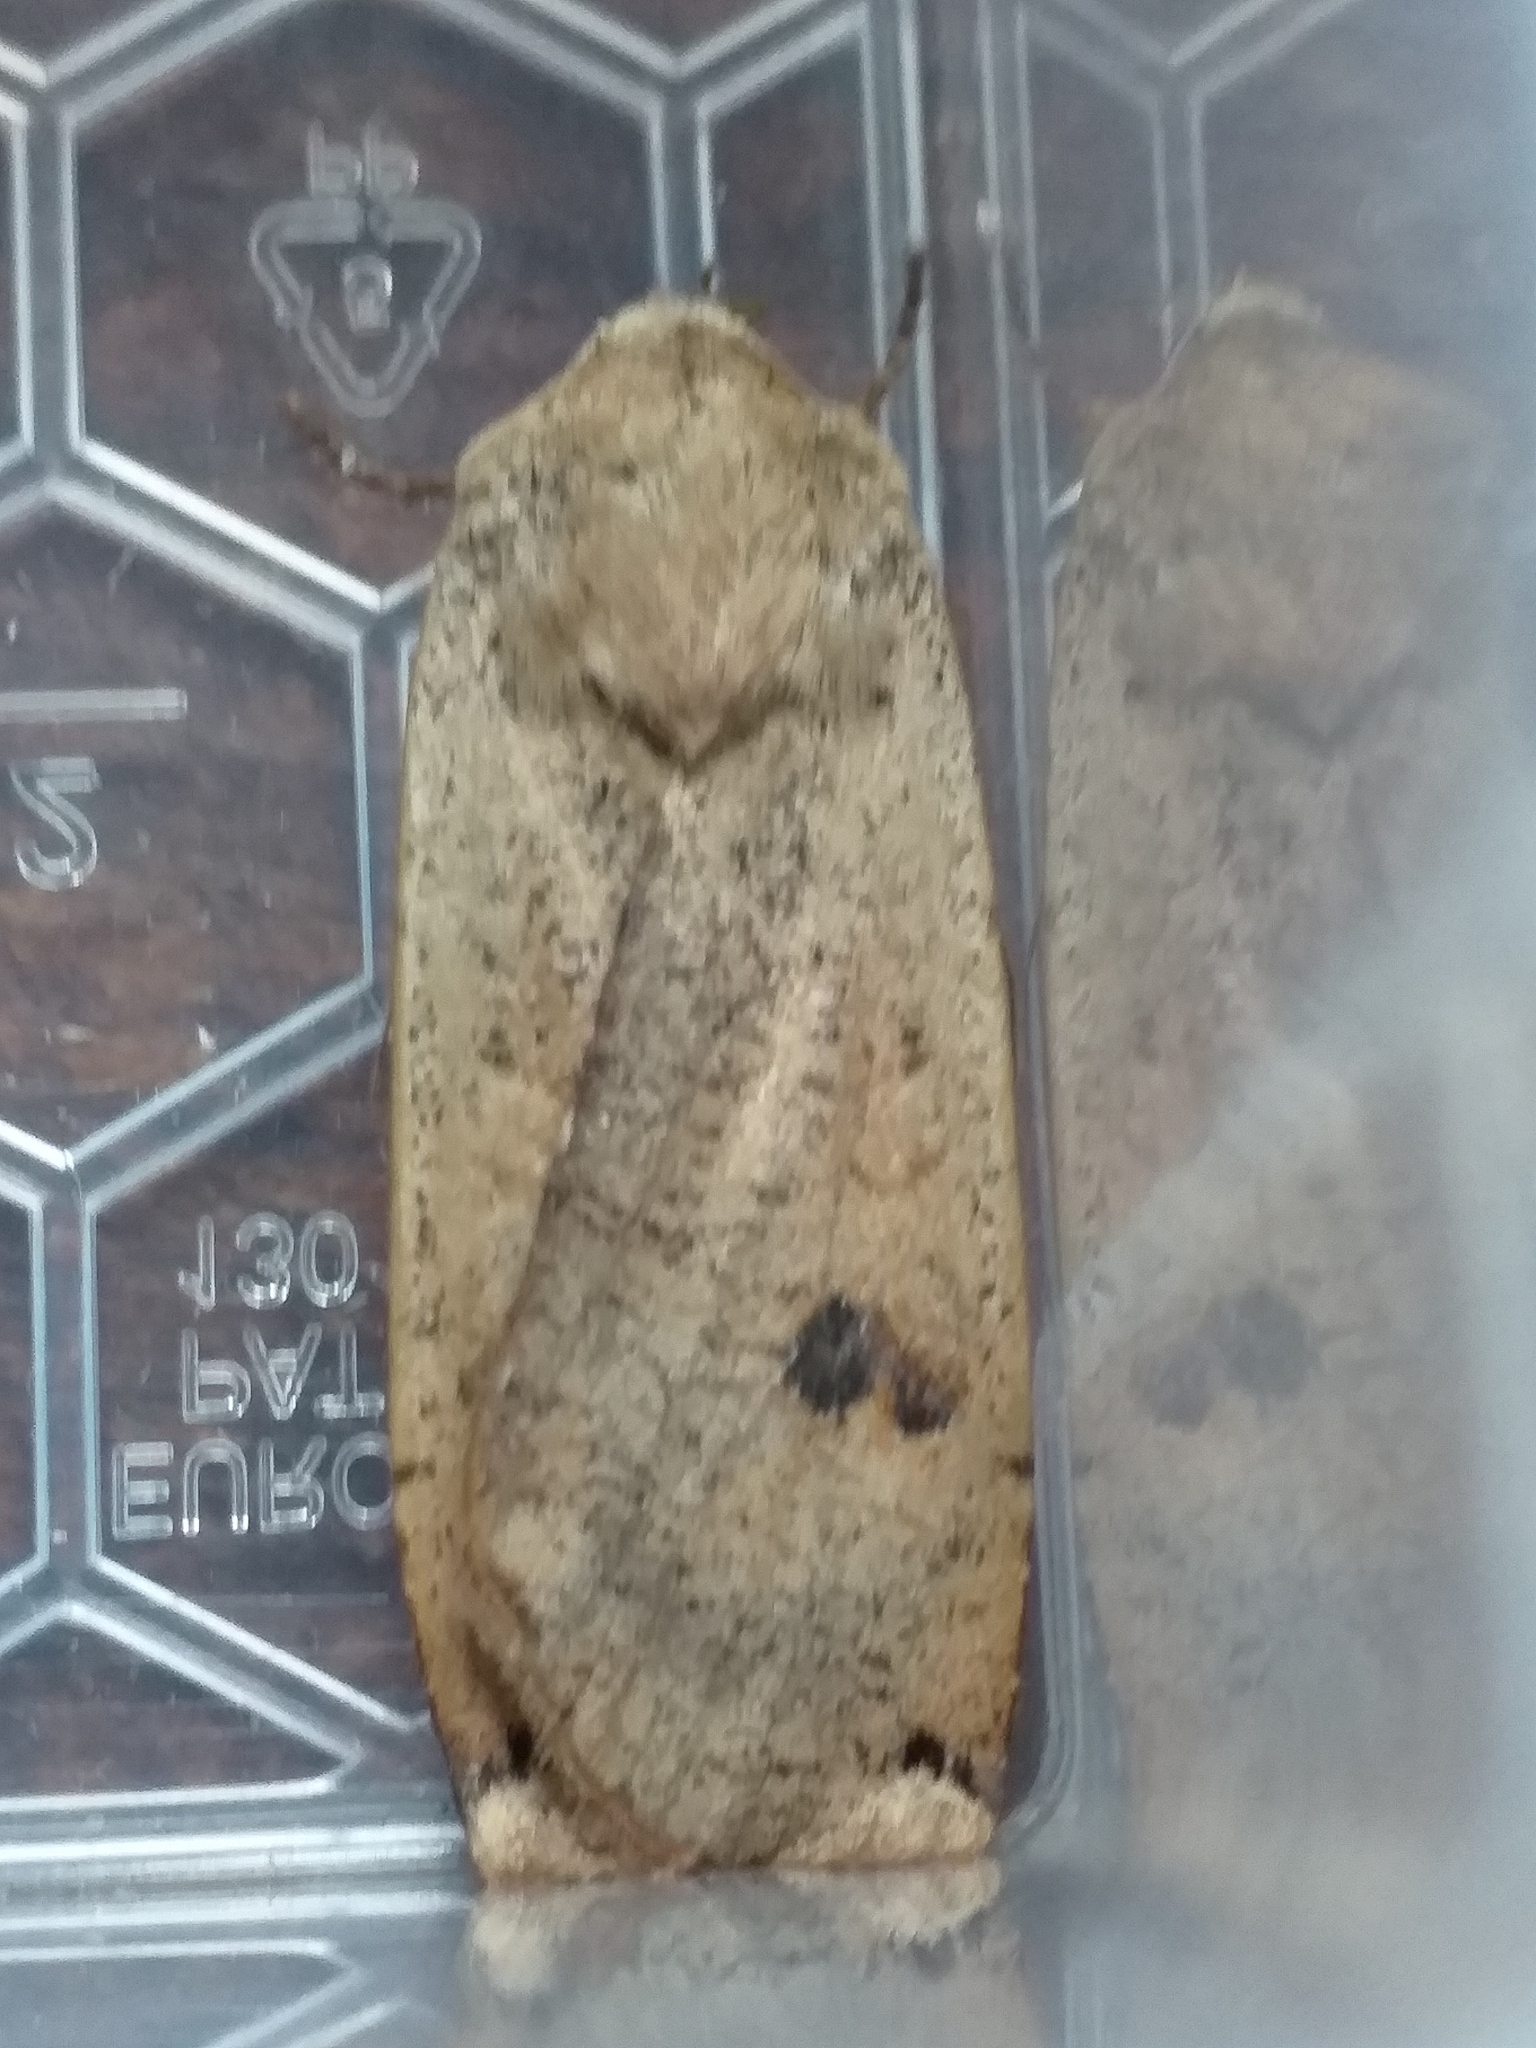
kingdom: Animalia
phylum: Arthropoda
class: Insecta
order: Lepidoptera
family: Noctuidae
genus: Noctua
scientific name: Noctua pronuba
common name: Large yellow underwing
